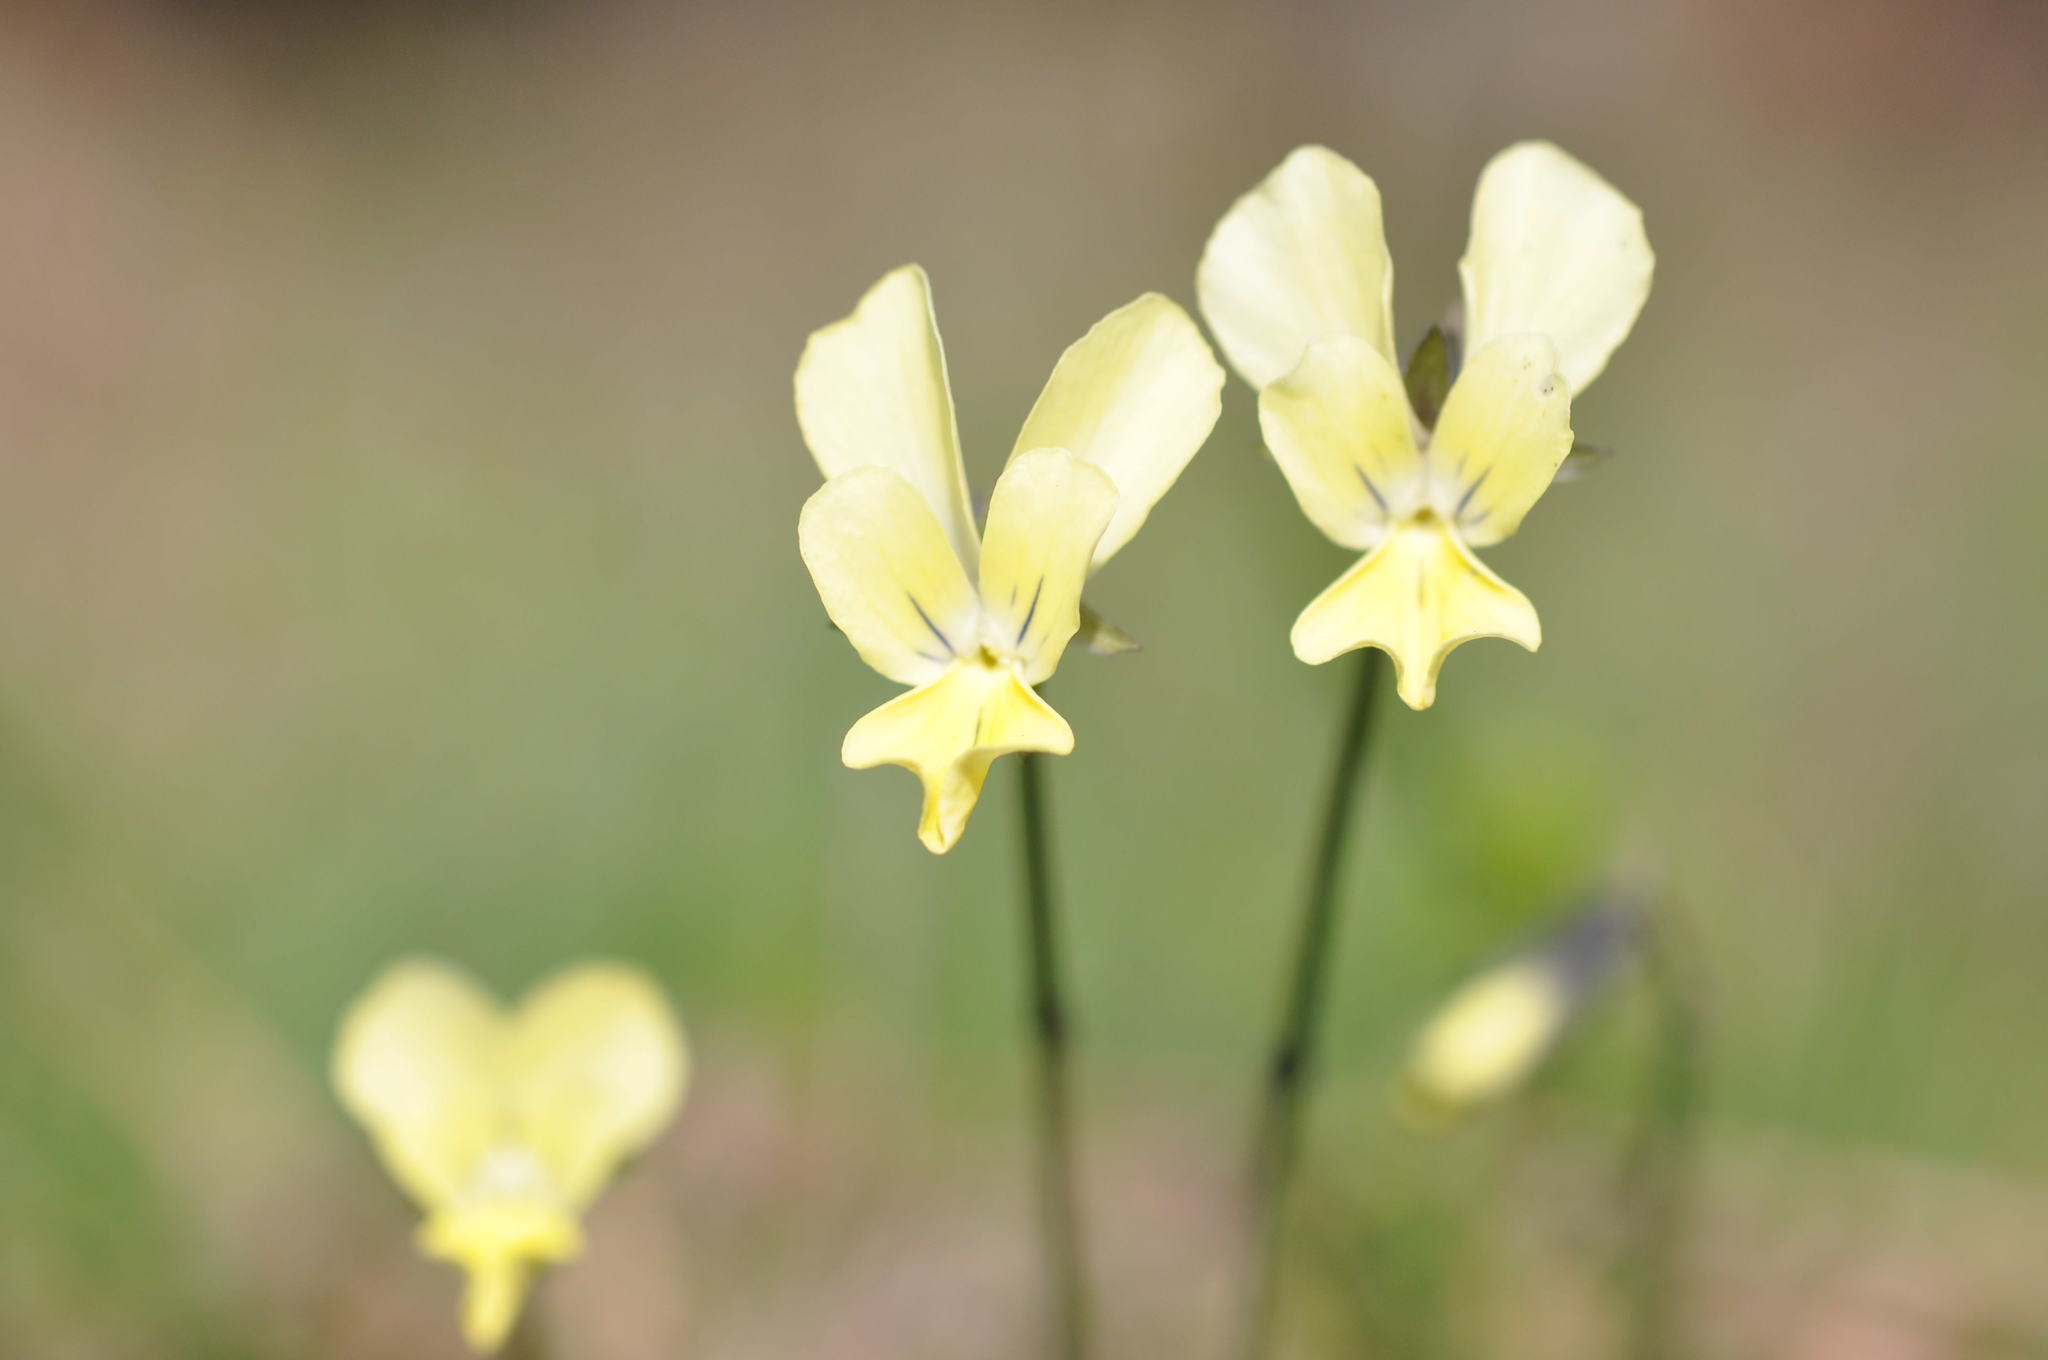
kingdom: Plantae
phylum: Tracheophyta
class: Magnoliopsida
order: Malpighiales
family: Violaceae
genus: Viola
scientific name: Viola merxmuelleri
